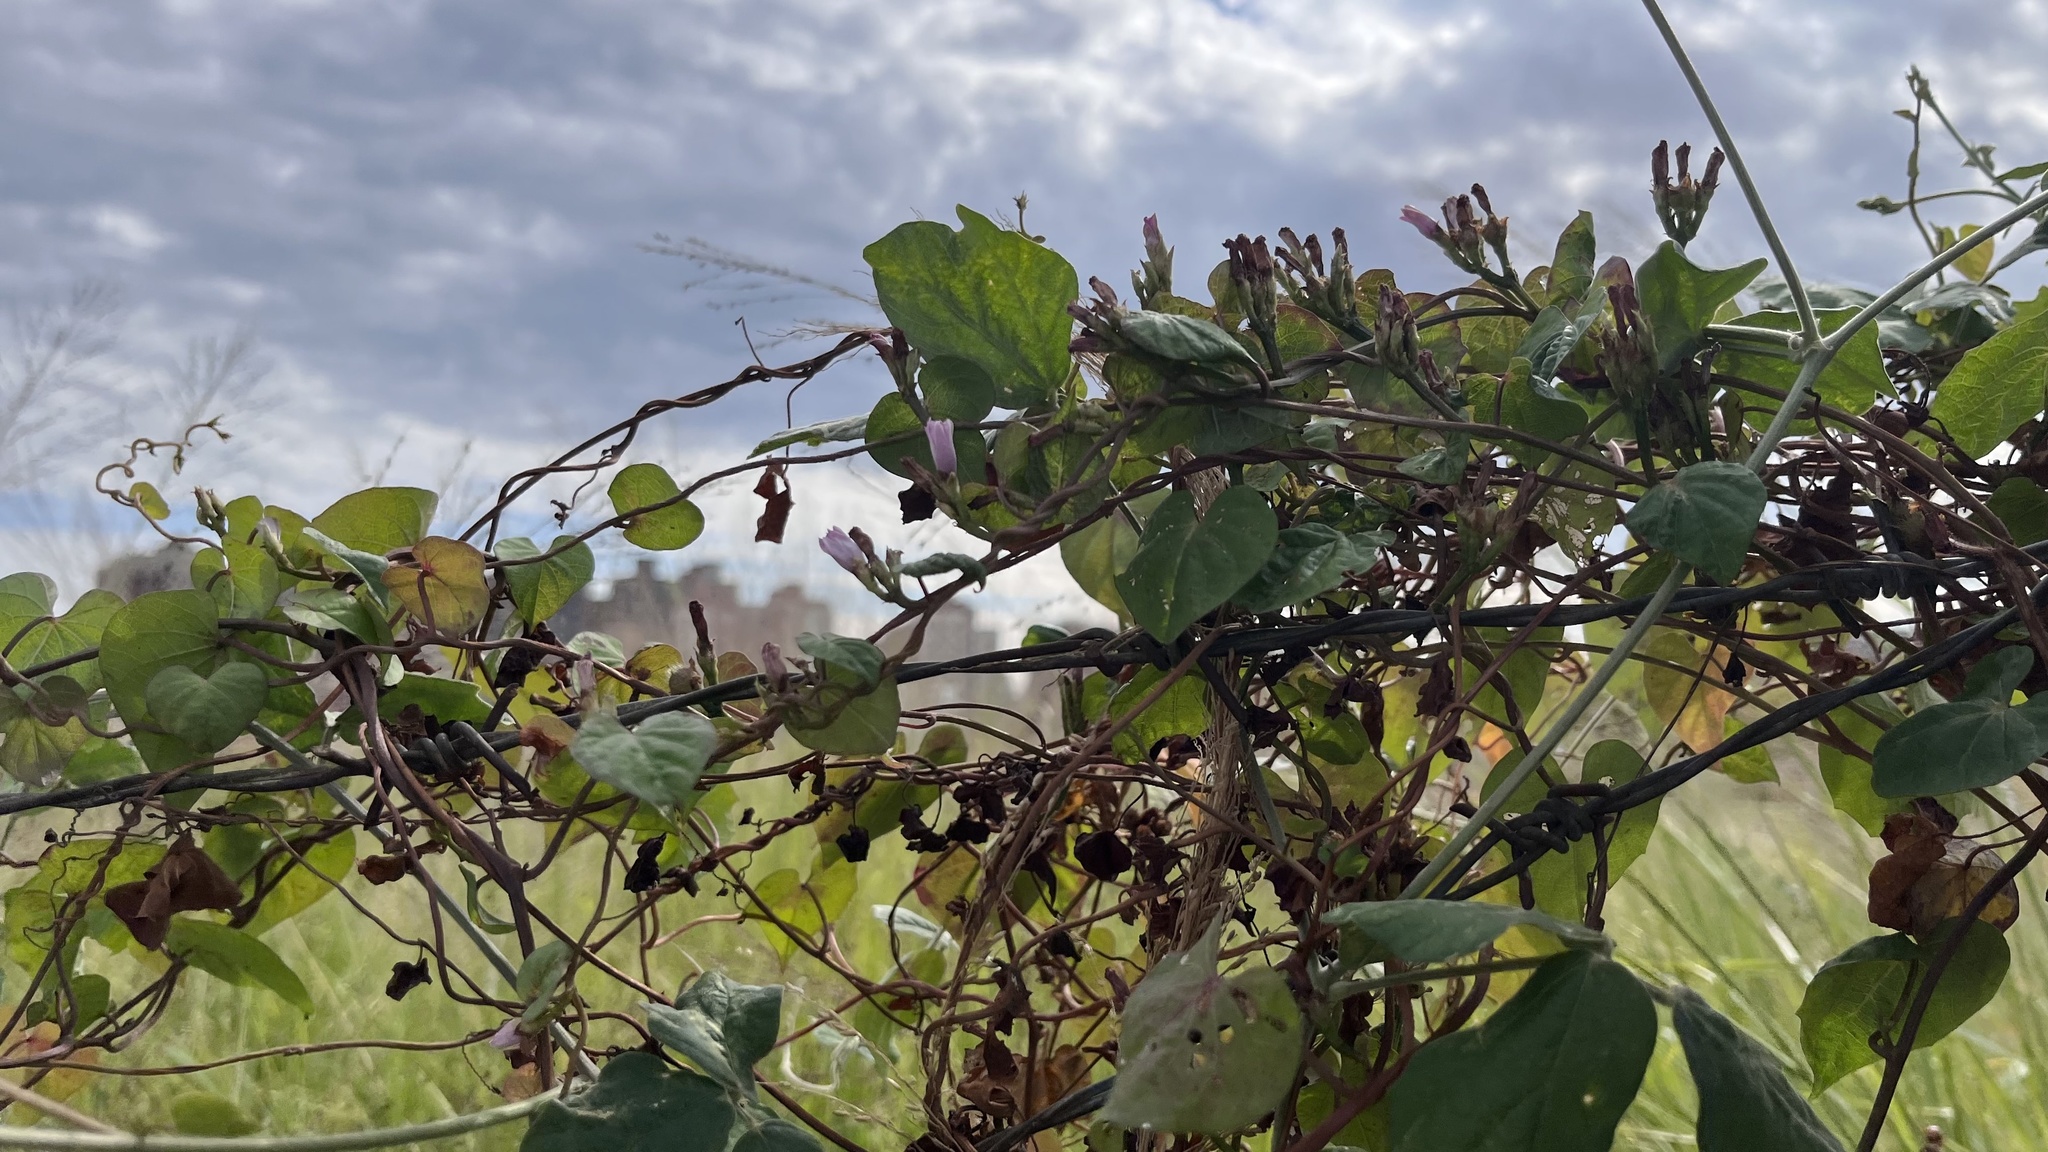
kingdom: Plantae
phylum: Tracheophyta
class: Magnoliopsida
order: Solanales
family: Convolvulaceae
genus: Ipomoea
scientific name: Ipomoea triloba
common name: Little-bell
